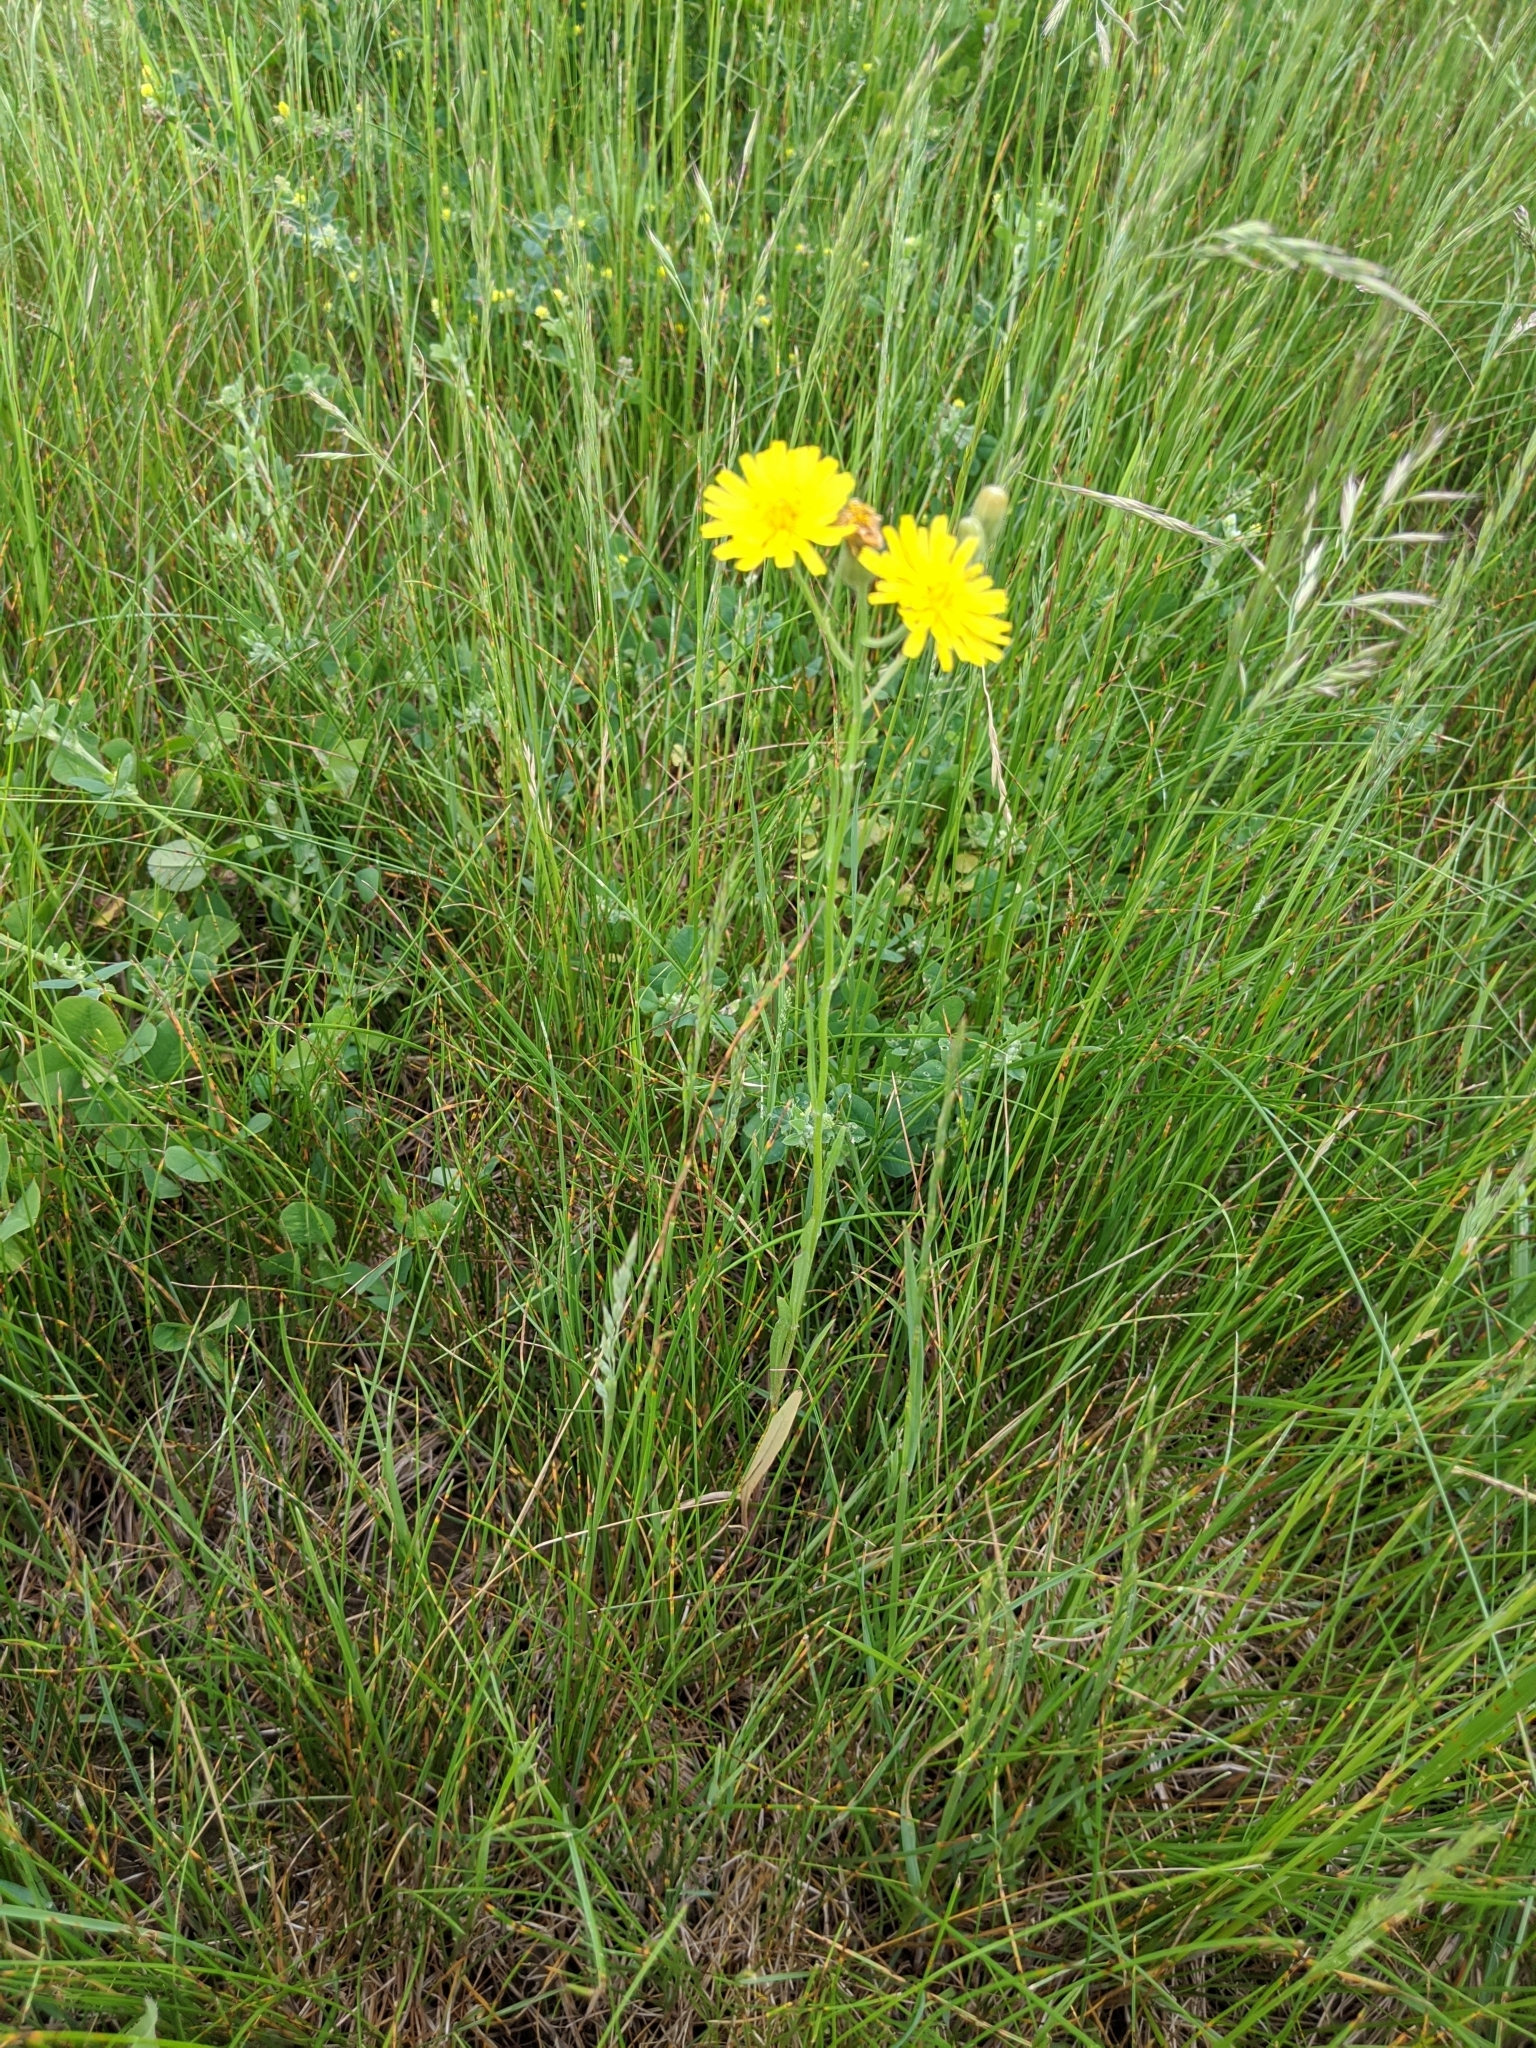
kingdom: Plantae
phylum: Tracheophyta
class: Magnoliopsida
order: Asterales
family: Asteraceae
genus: Crepis
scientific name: Crepis tectorum
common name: Narrow-leaved hawk's-beard
